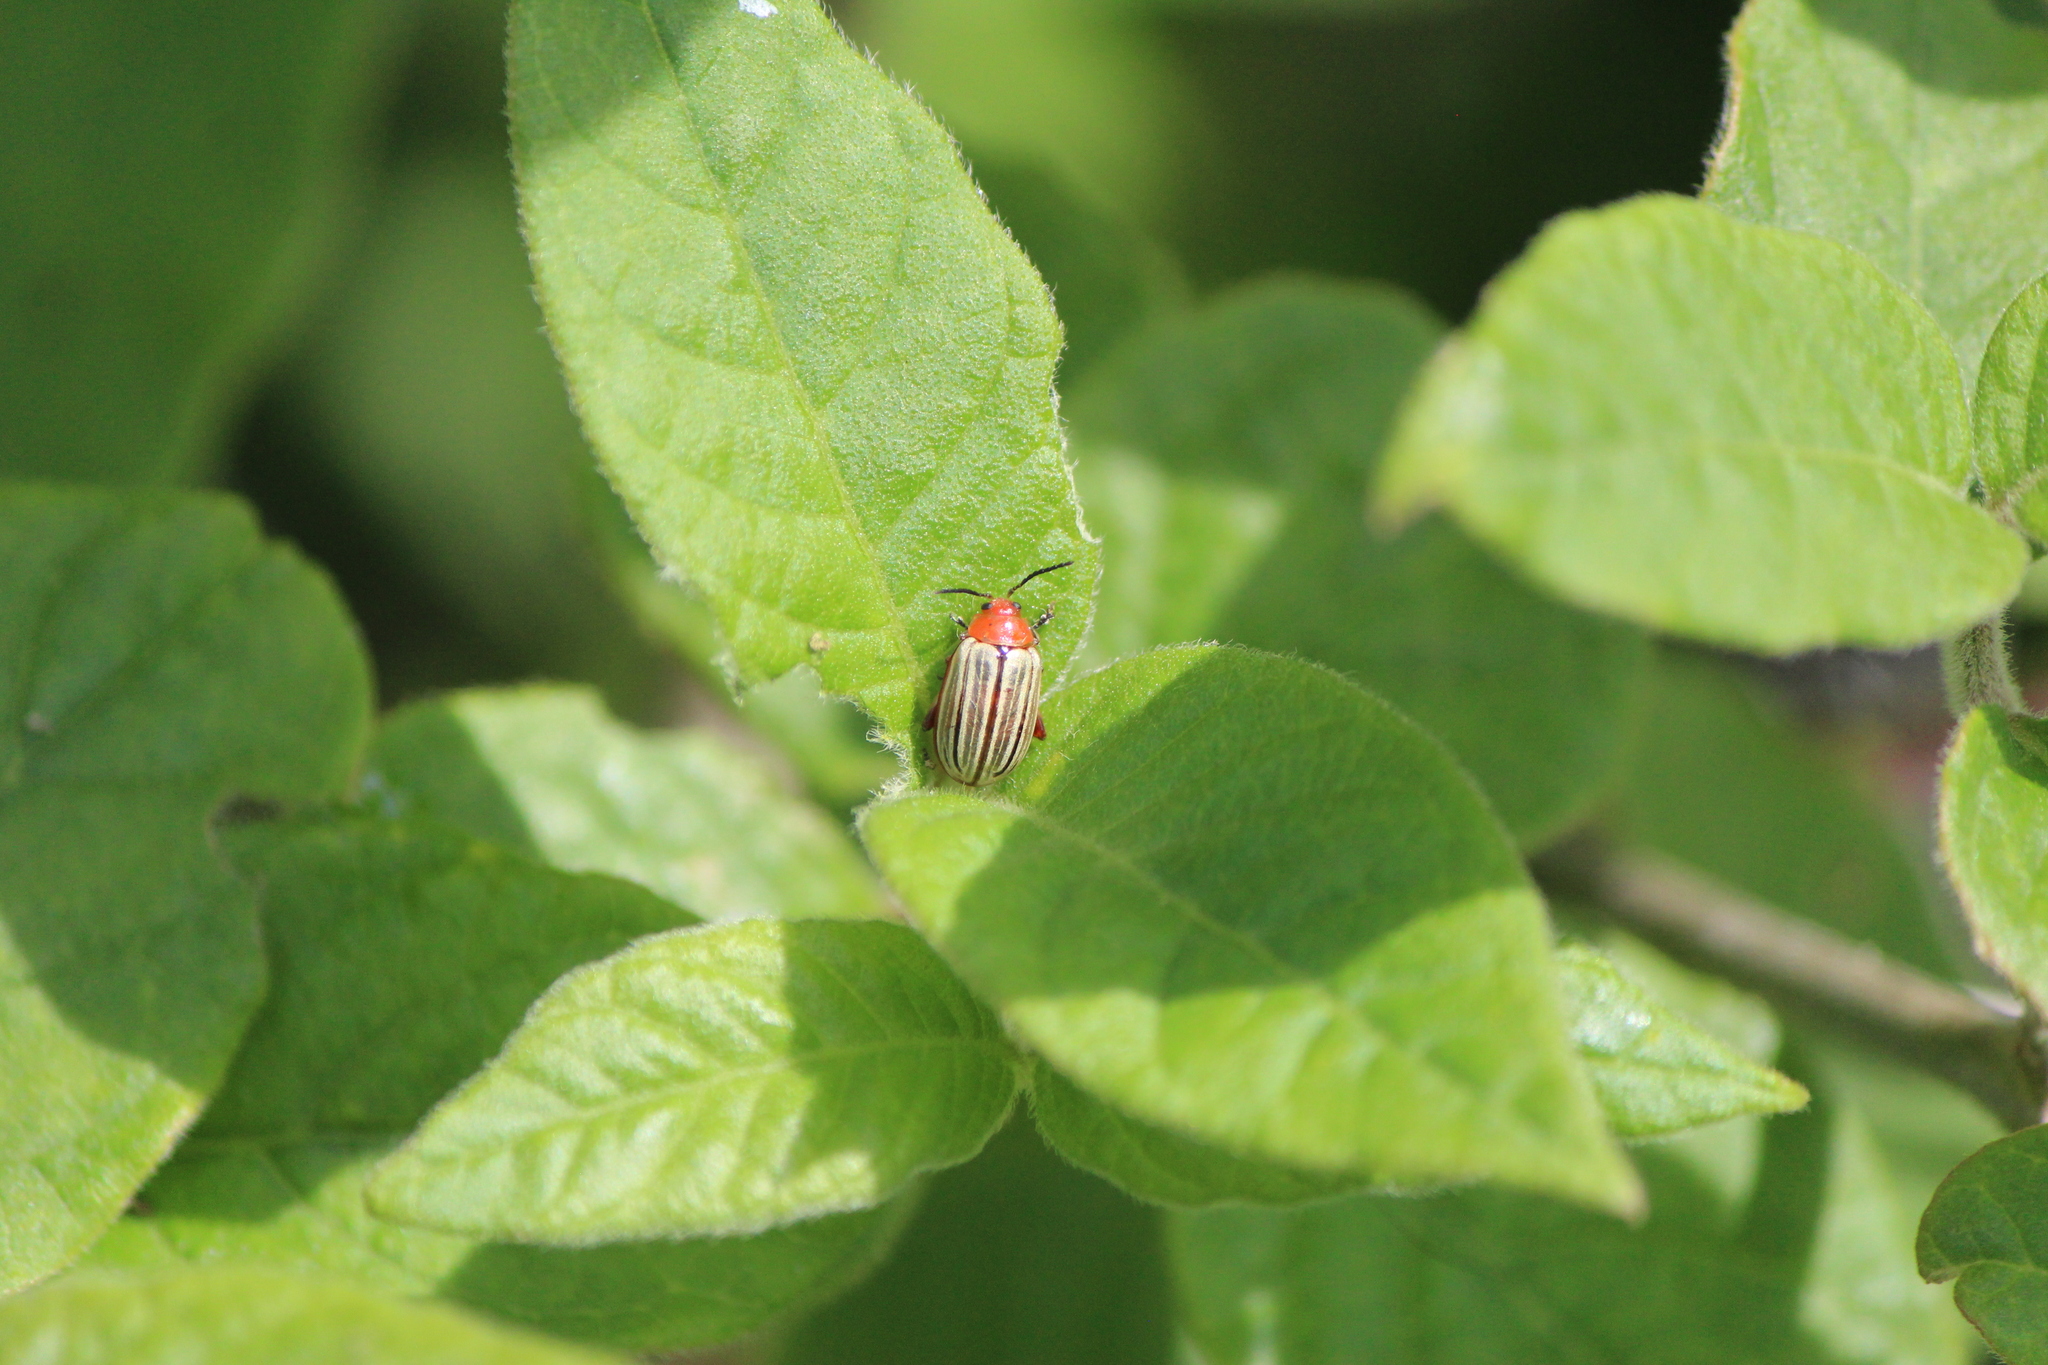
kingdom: Animalia
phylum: Arthropoda
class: Insecta
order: Coleoptera
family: Chrysomelidae
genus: Disonycha
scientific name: Disonycha
